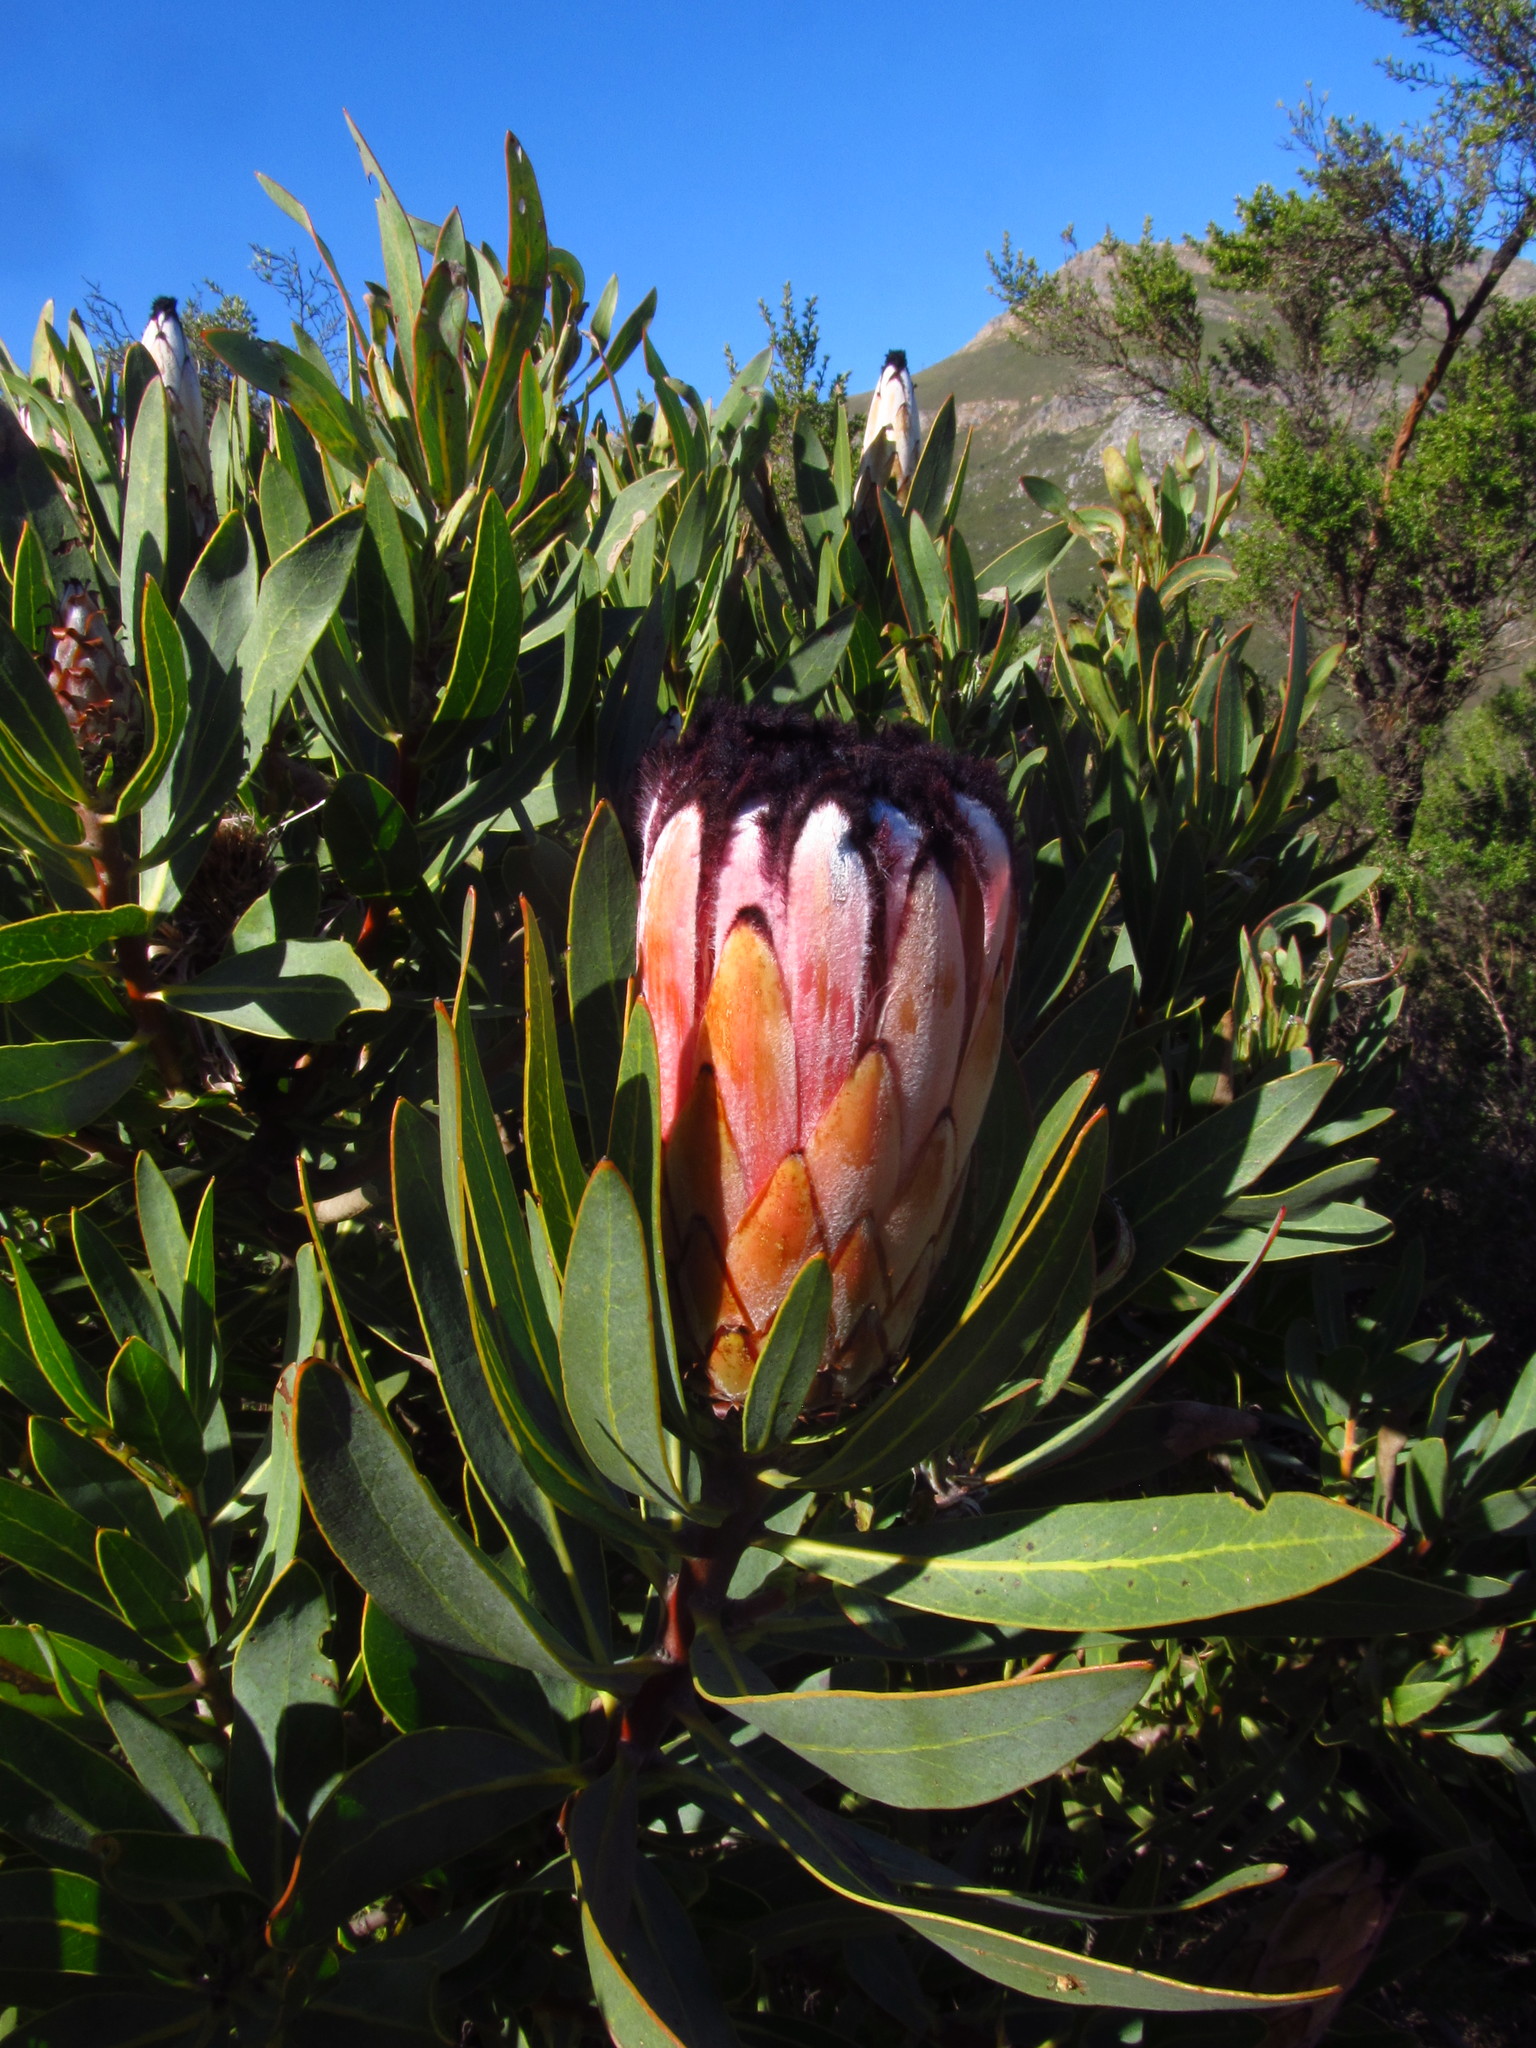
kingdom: Plantae
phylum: Tracheophyta
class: Magnoliopsida
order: Proteales
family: Proteaceae
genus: Protea
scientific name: Protea laurifolia
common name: Grey-leaf sugarbsh
